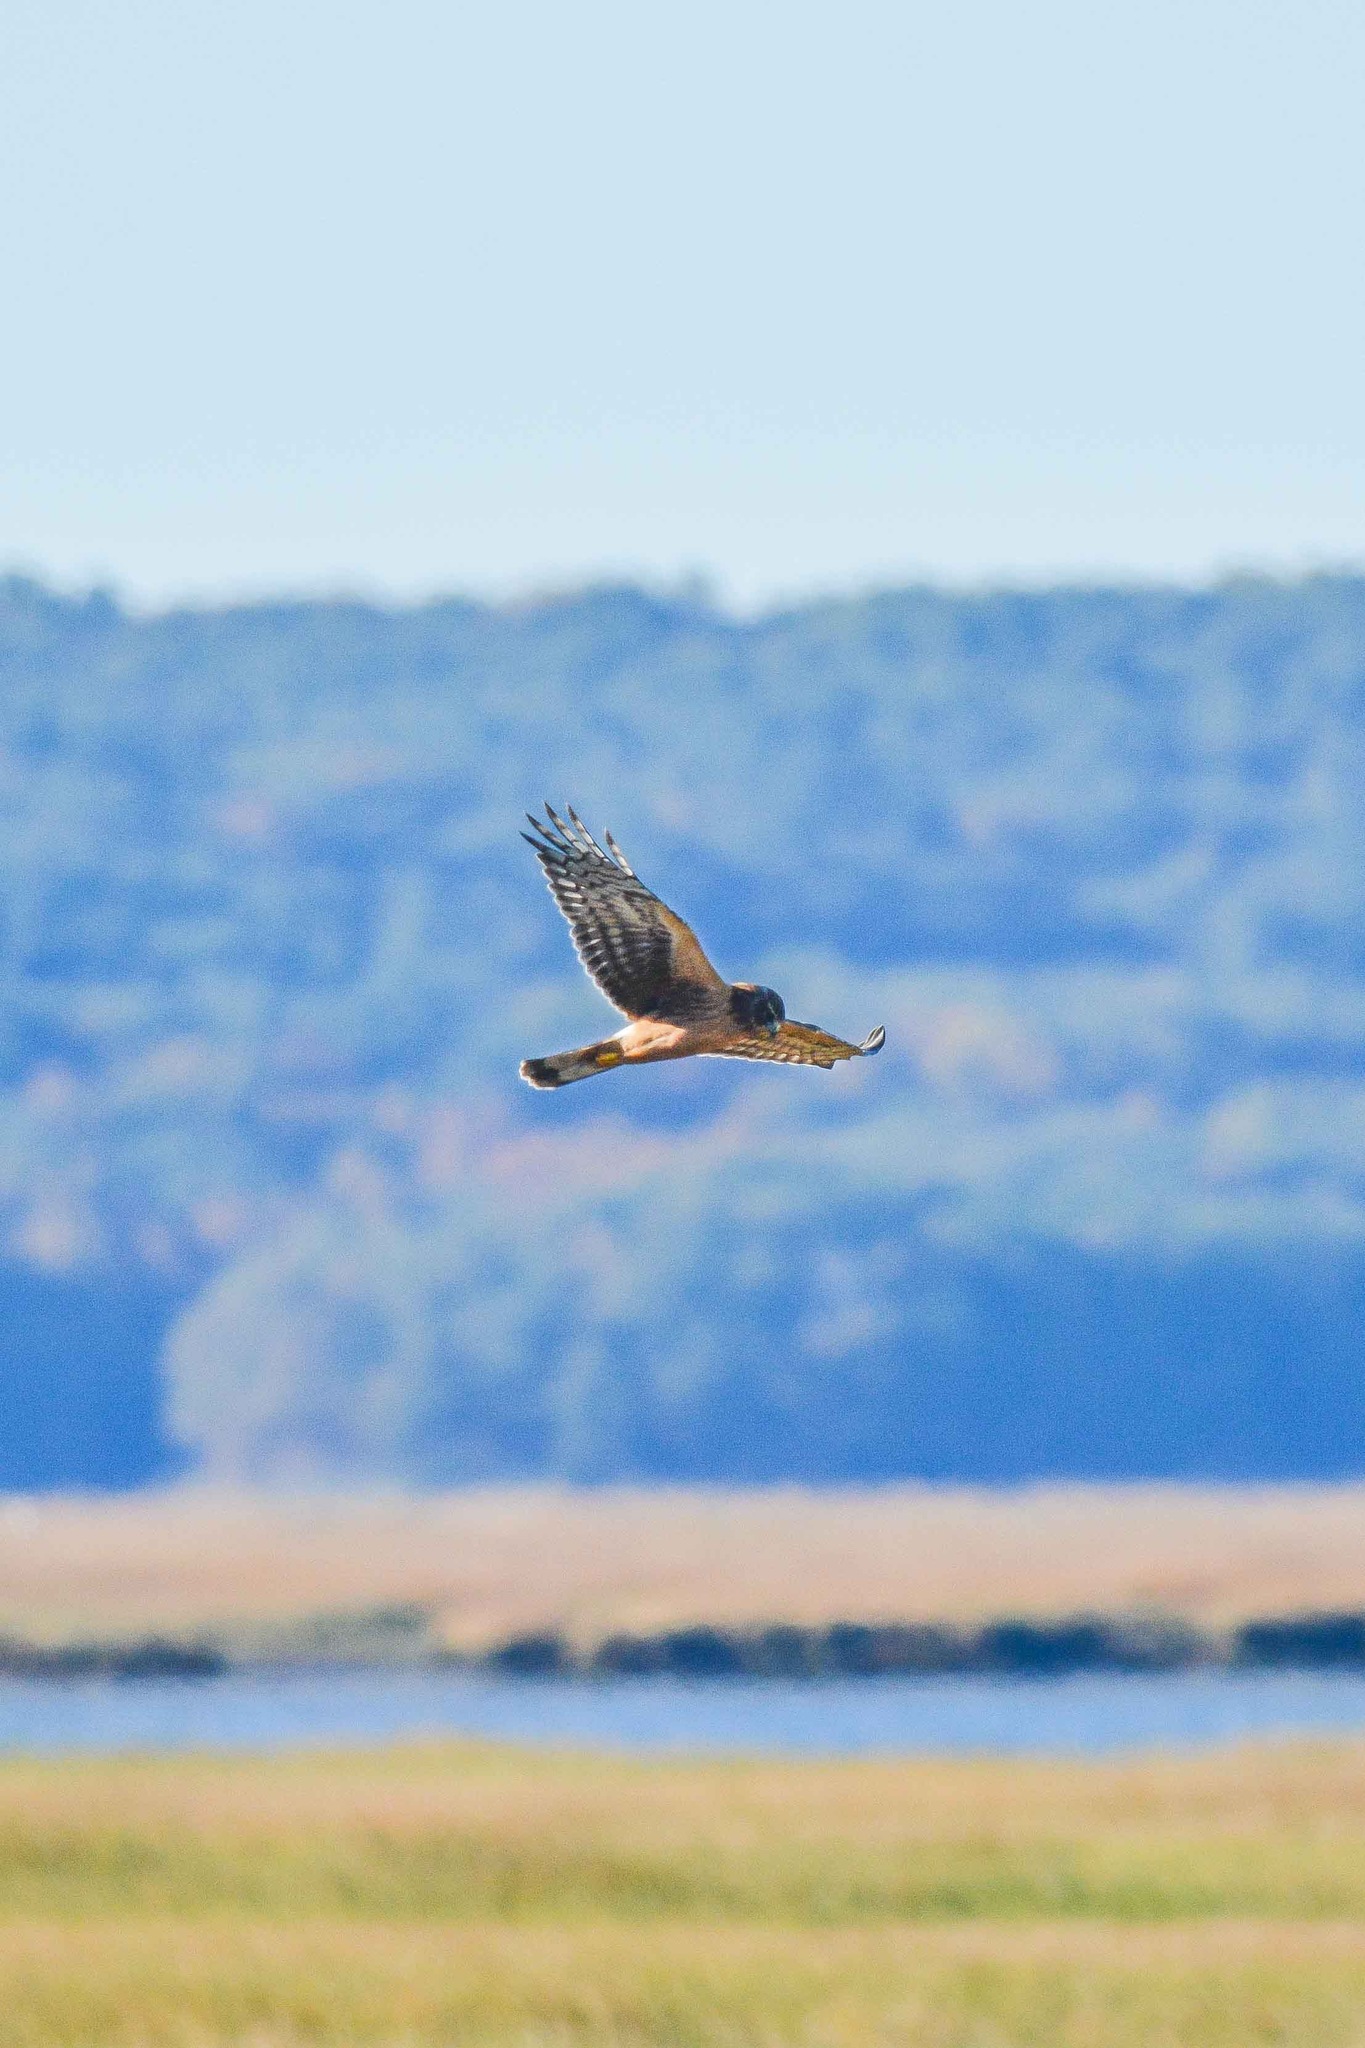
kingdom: Animalia
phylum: Chordata
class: Aves
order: Accipitriformes
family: Accipitridae
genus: Circus
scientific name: Circus cyaneus
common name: Hen harrier
